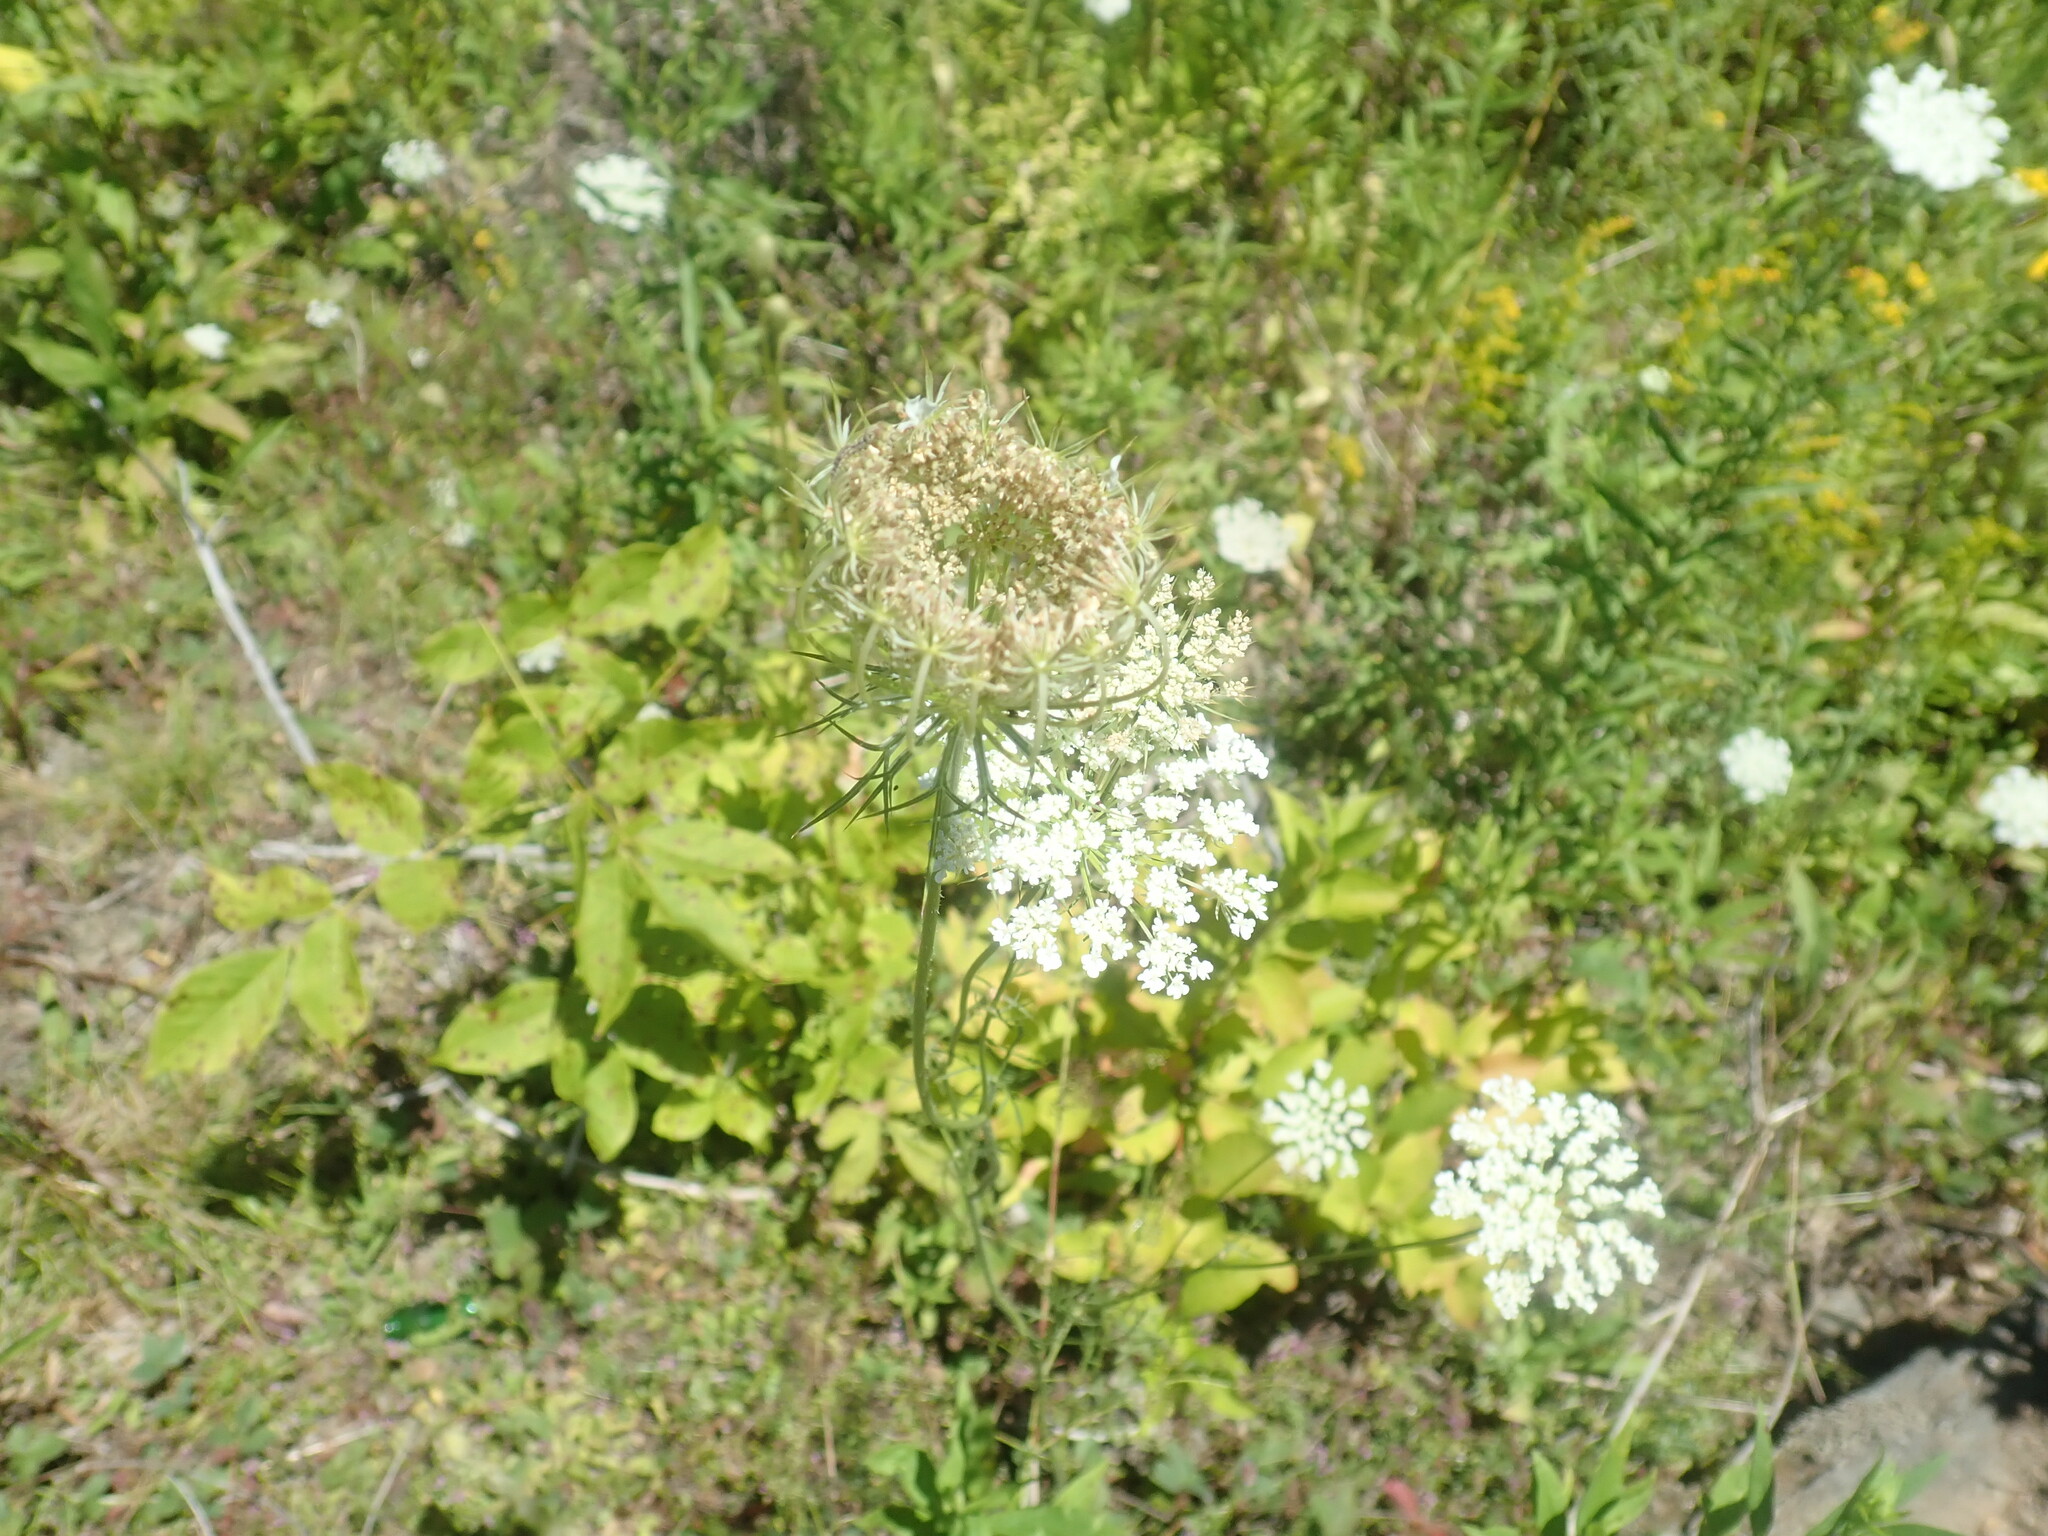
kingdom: Plantae
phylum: Tracheophyta
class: Magnoliopsida
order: Apiales
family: Apiaceae
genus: Daucus
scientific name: Daucus carota
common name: Wild carrot
